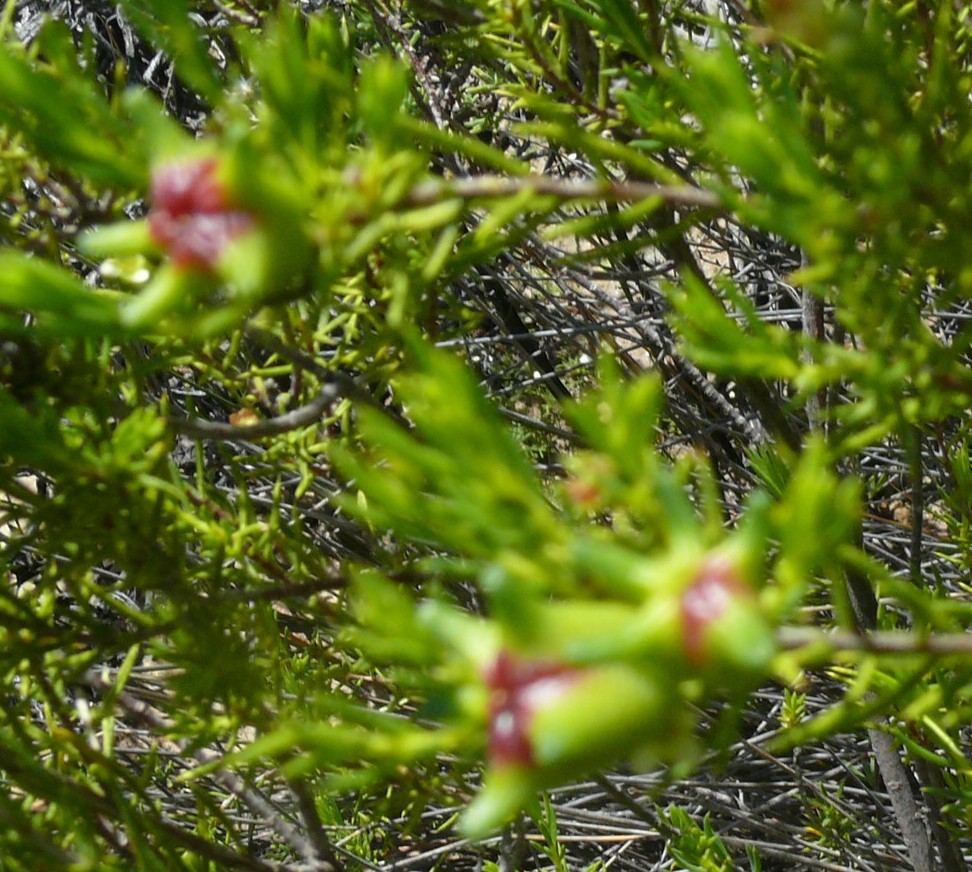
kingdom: Plantae
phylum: Tracheophyta
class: Magnoliopsida
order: Sapindales
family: Rutaceae
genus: Diosma
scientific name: Diosma acmaeophylla
